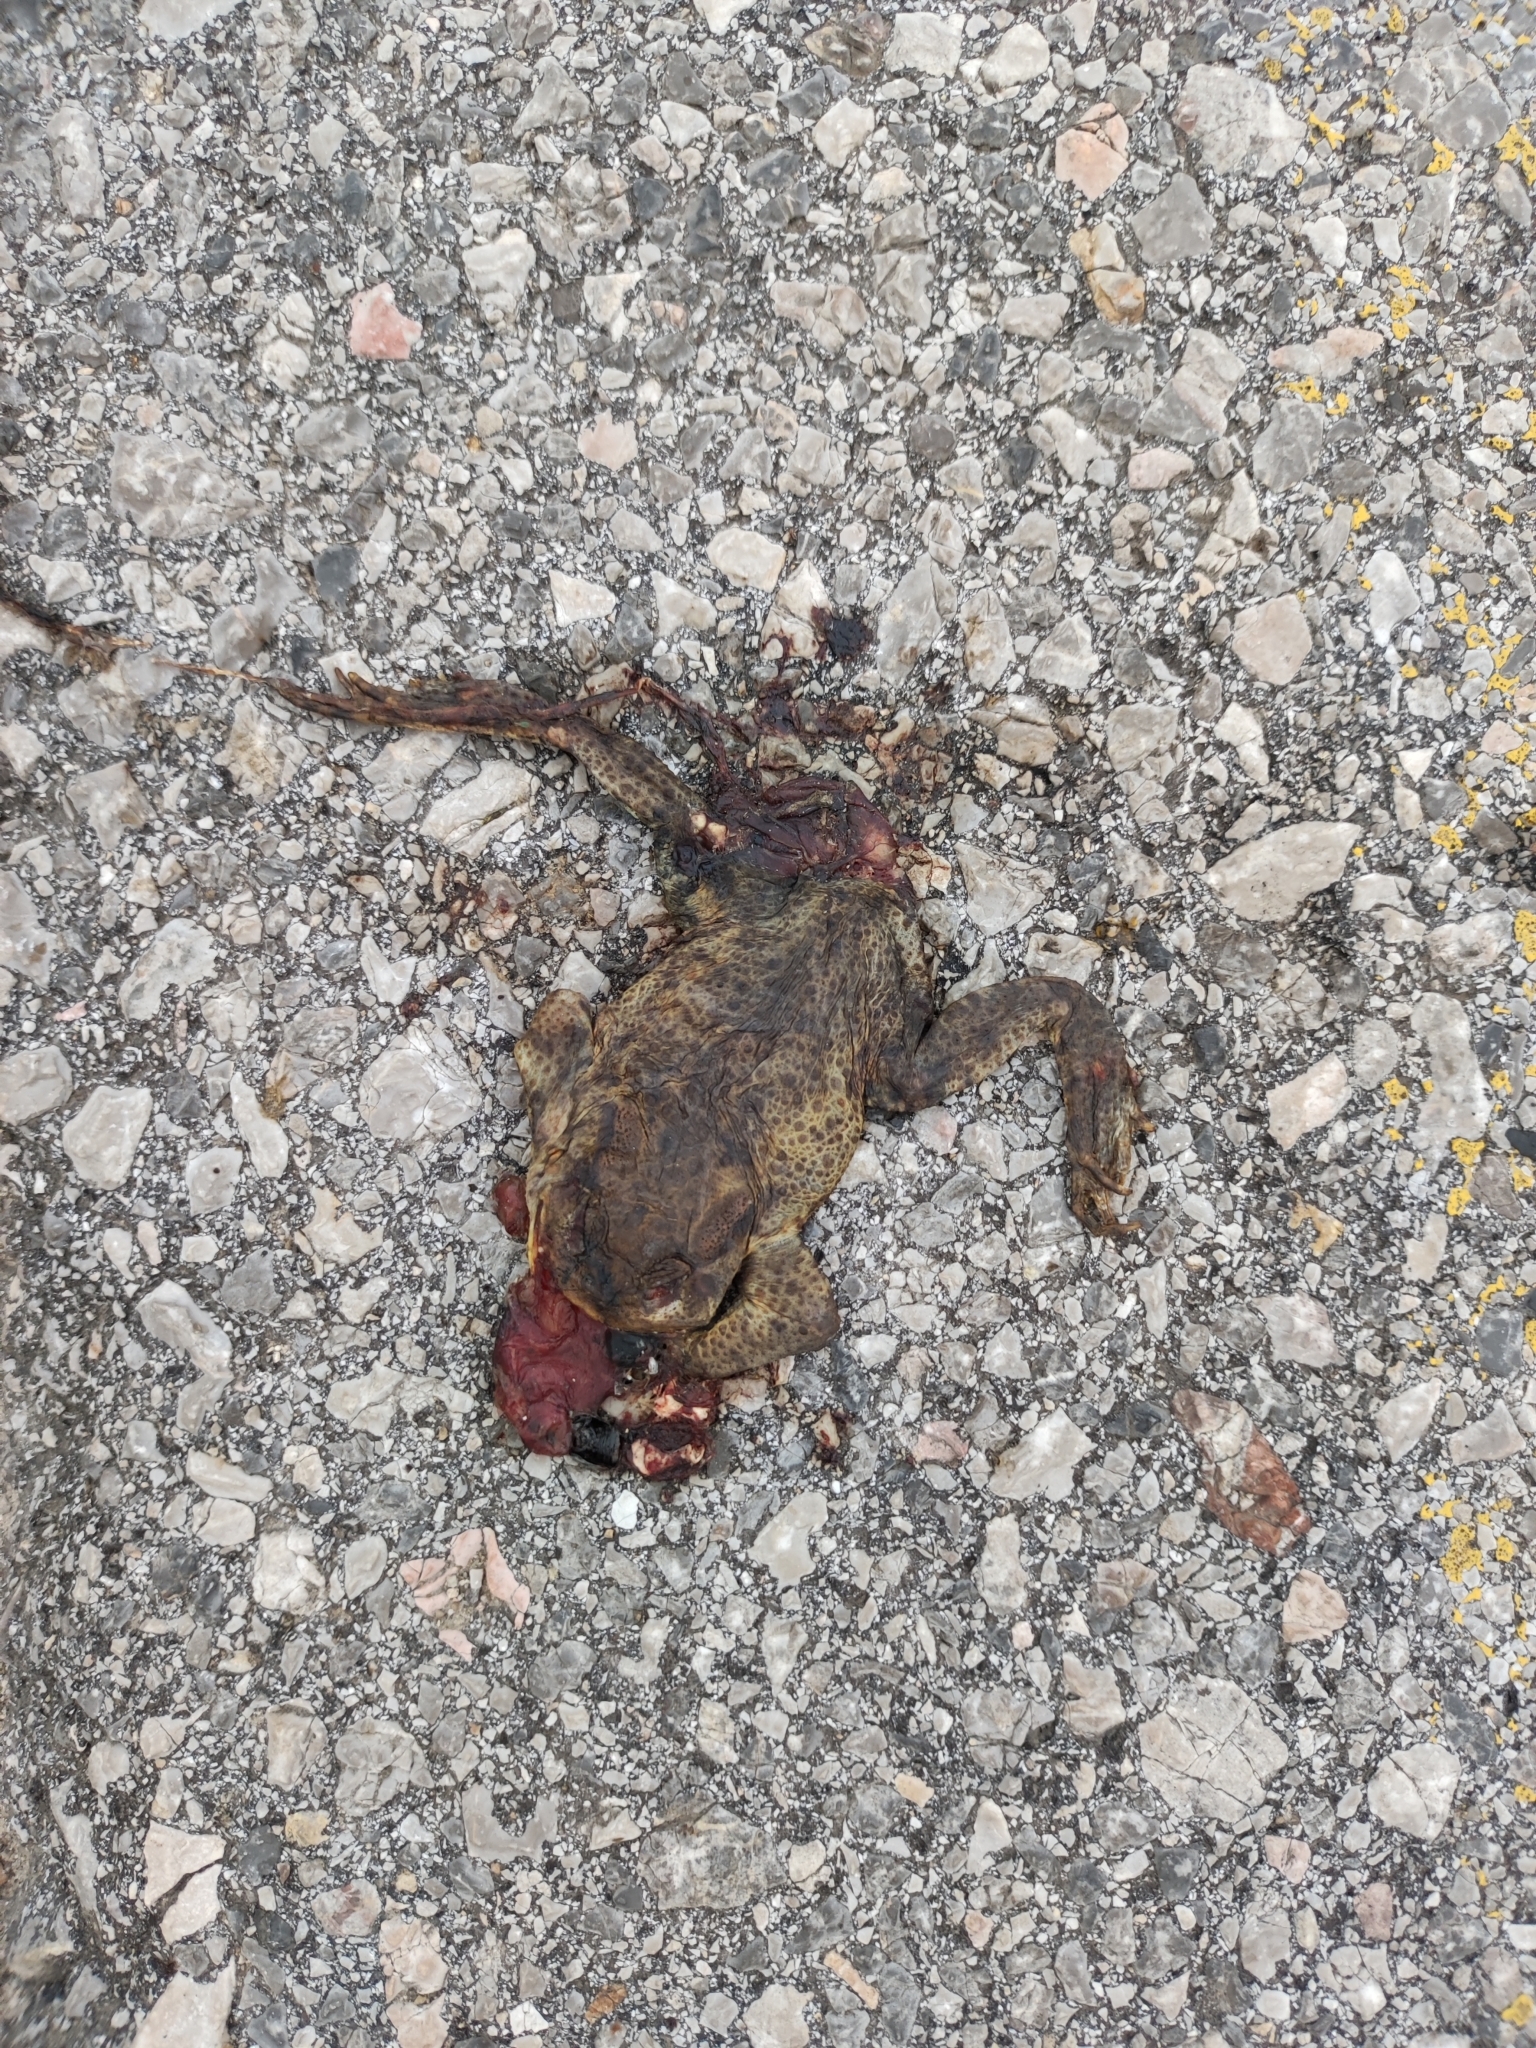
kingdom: Animalia
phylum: Chordata
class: Amphibia
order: Anura
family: Bufonidae
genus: Bufo
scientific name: Bufo bufo
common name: Common toad
